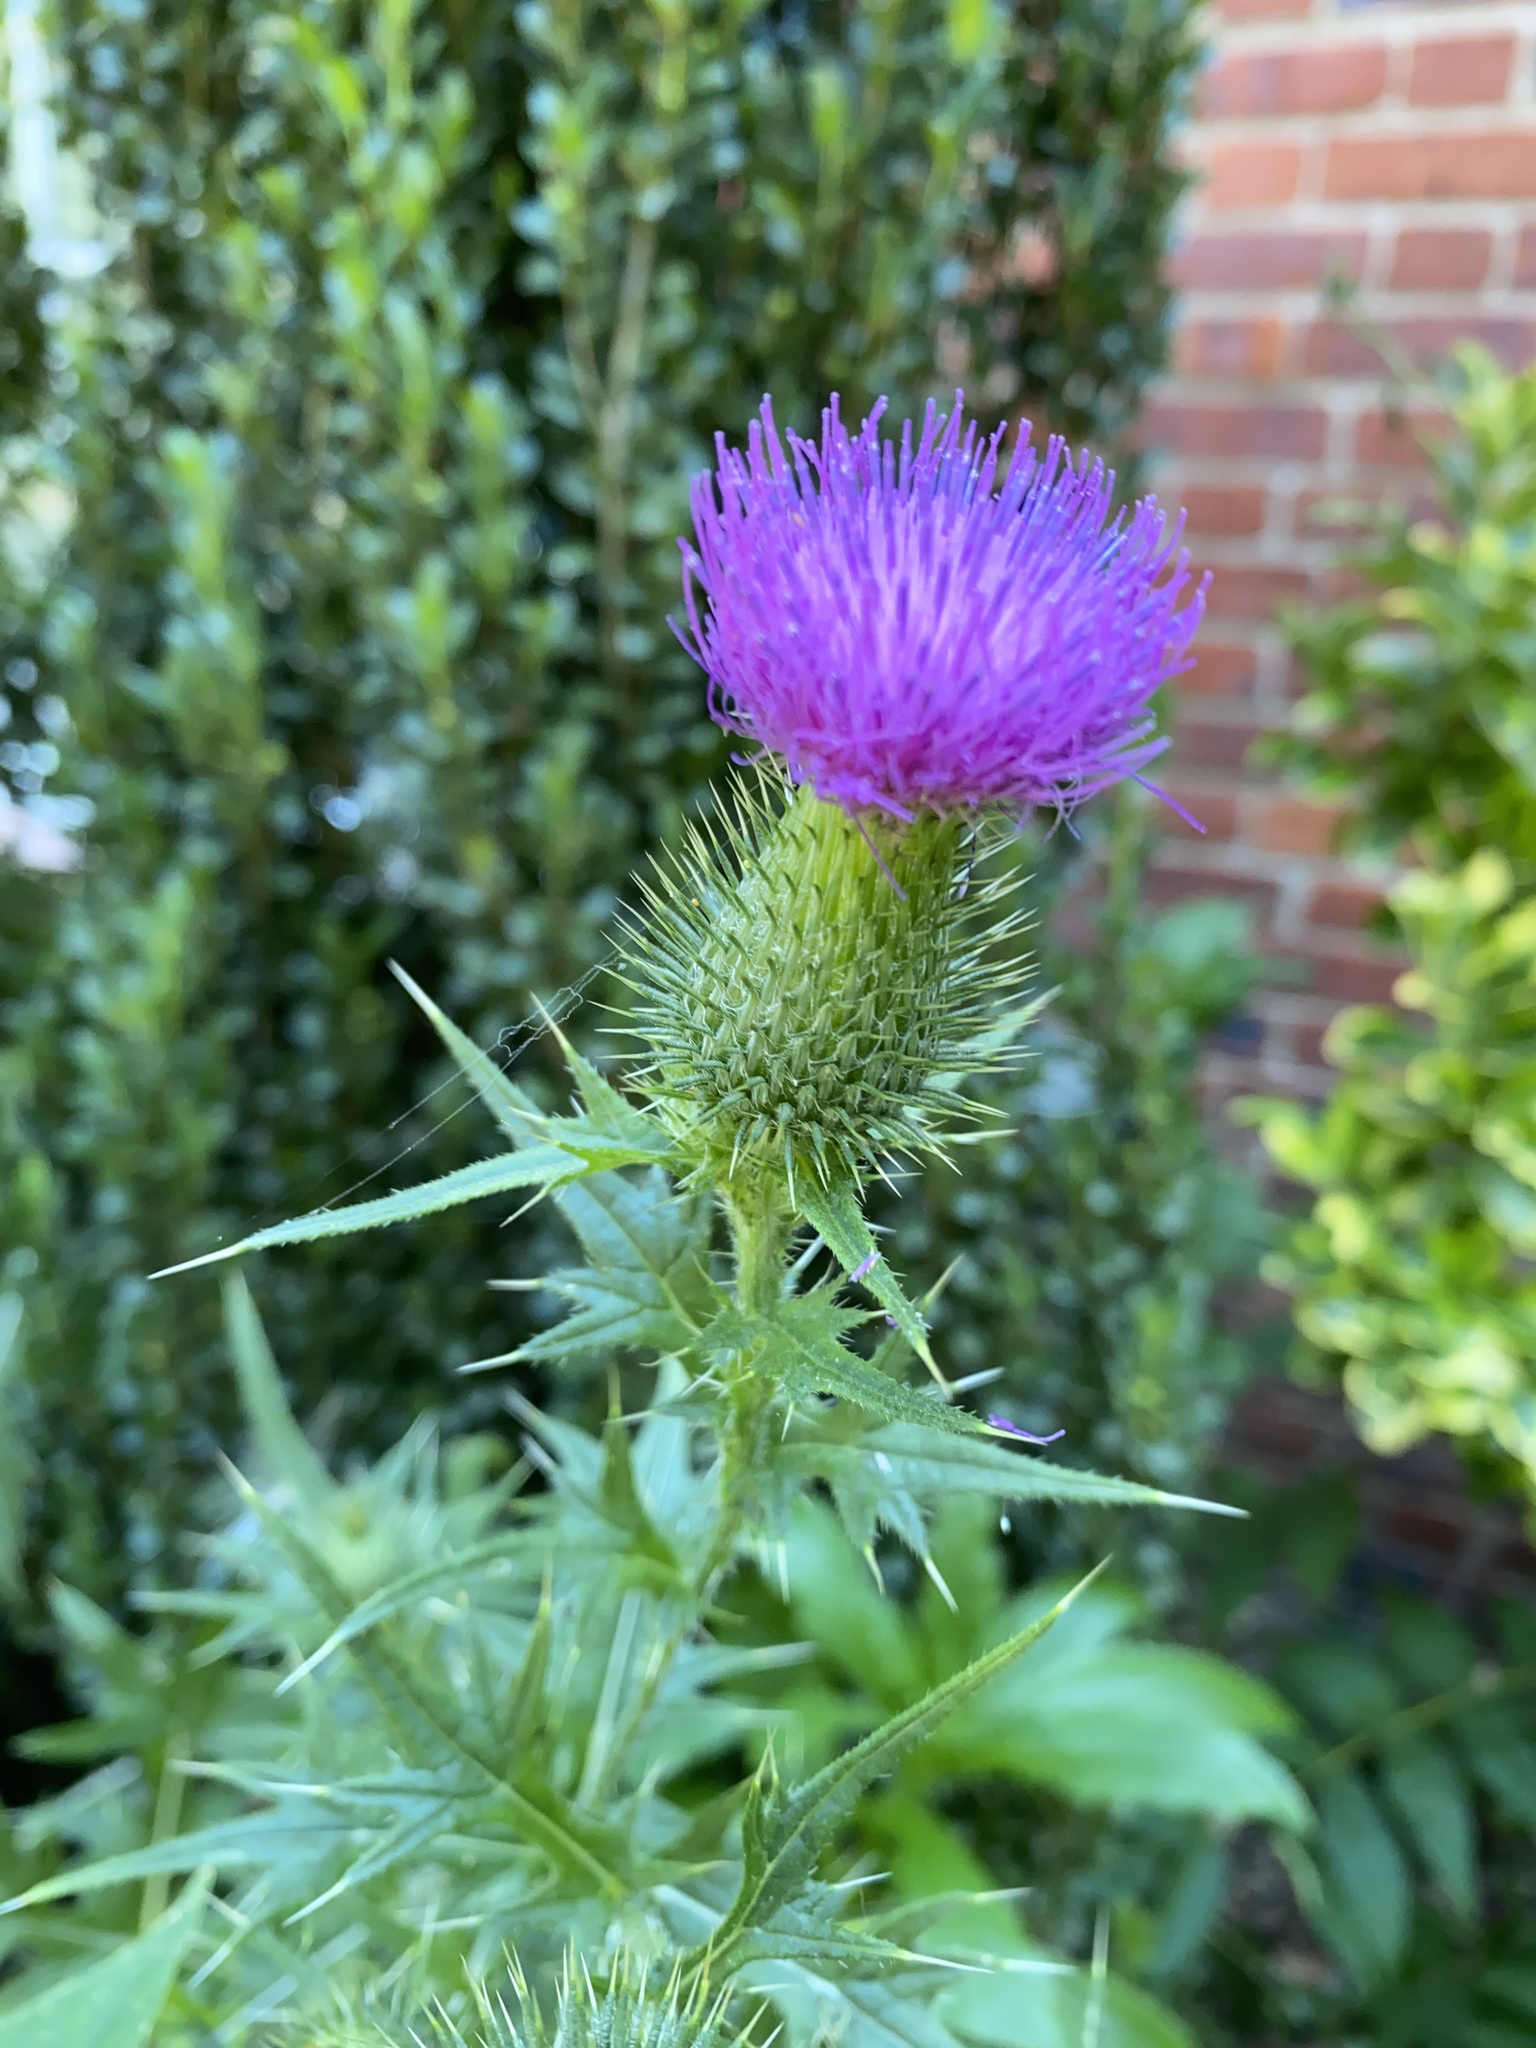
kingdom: Plantae
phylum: Tracheophyta
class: Magnoliopsida
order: Asterales
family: Asteraceae
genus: Cirsium
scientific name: Cirsium vulgare
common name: Bull thistle
